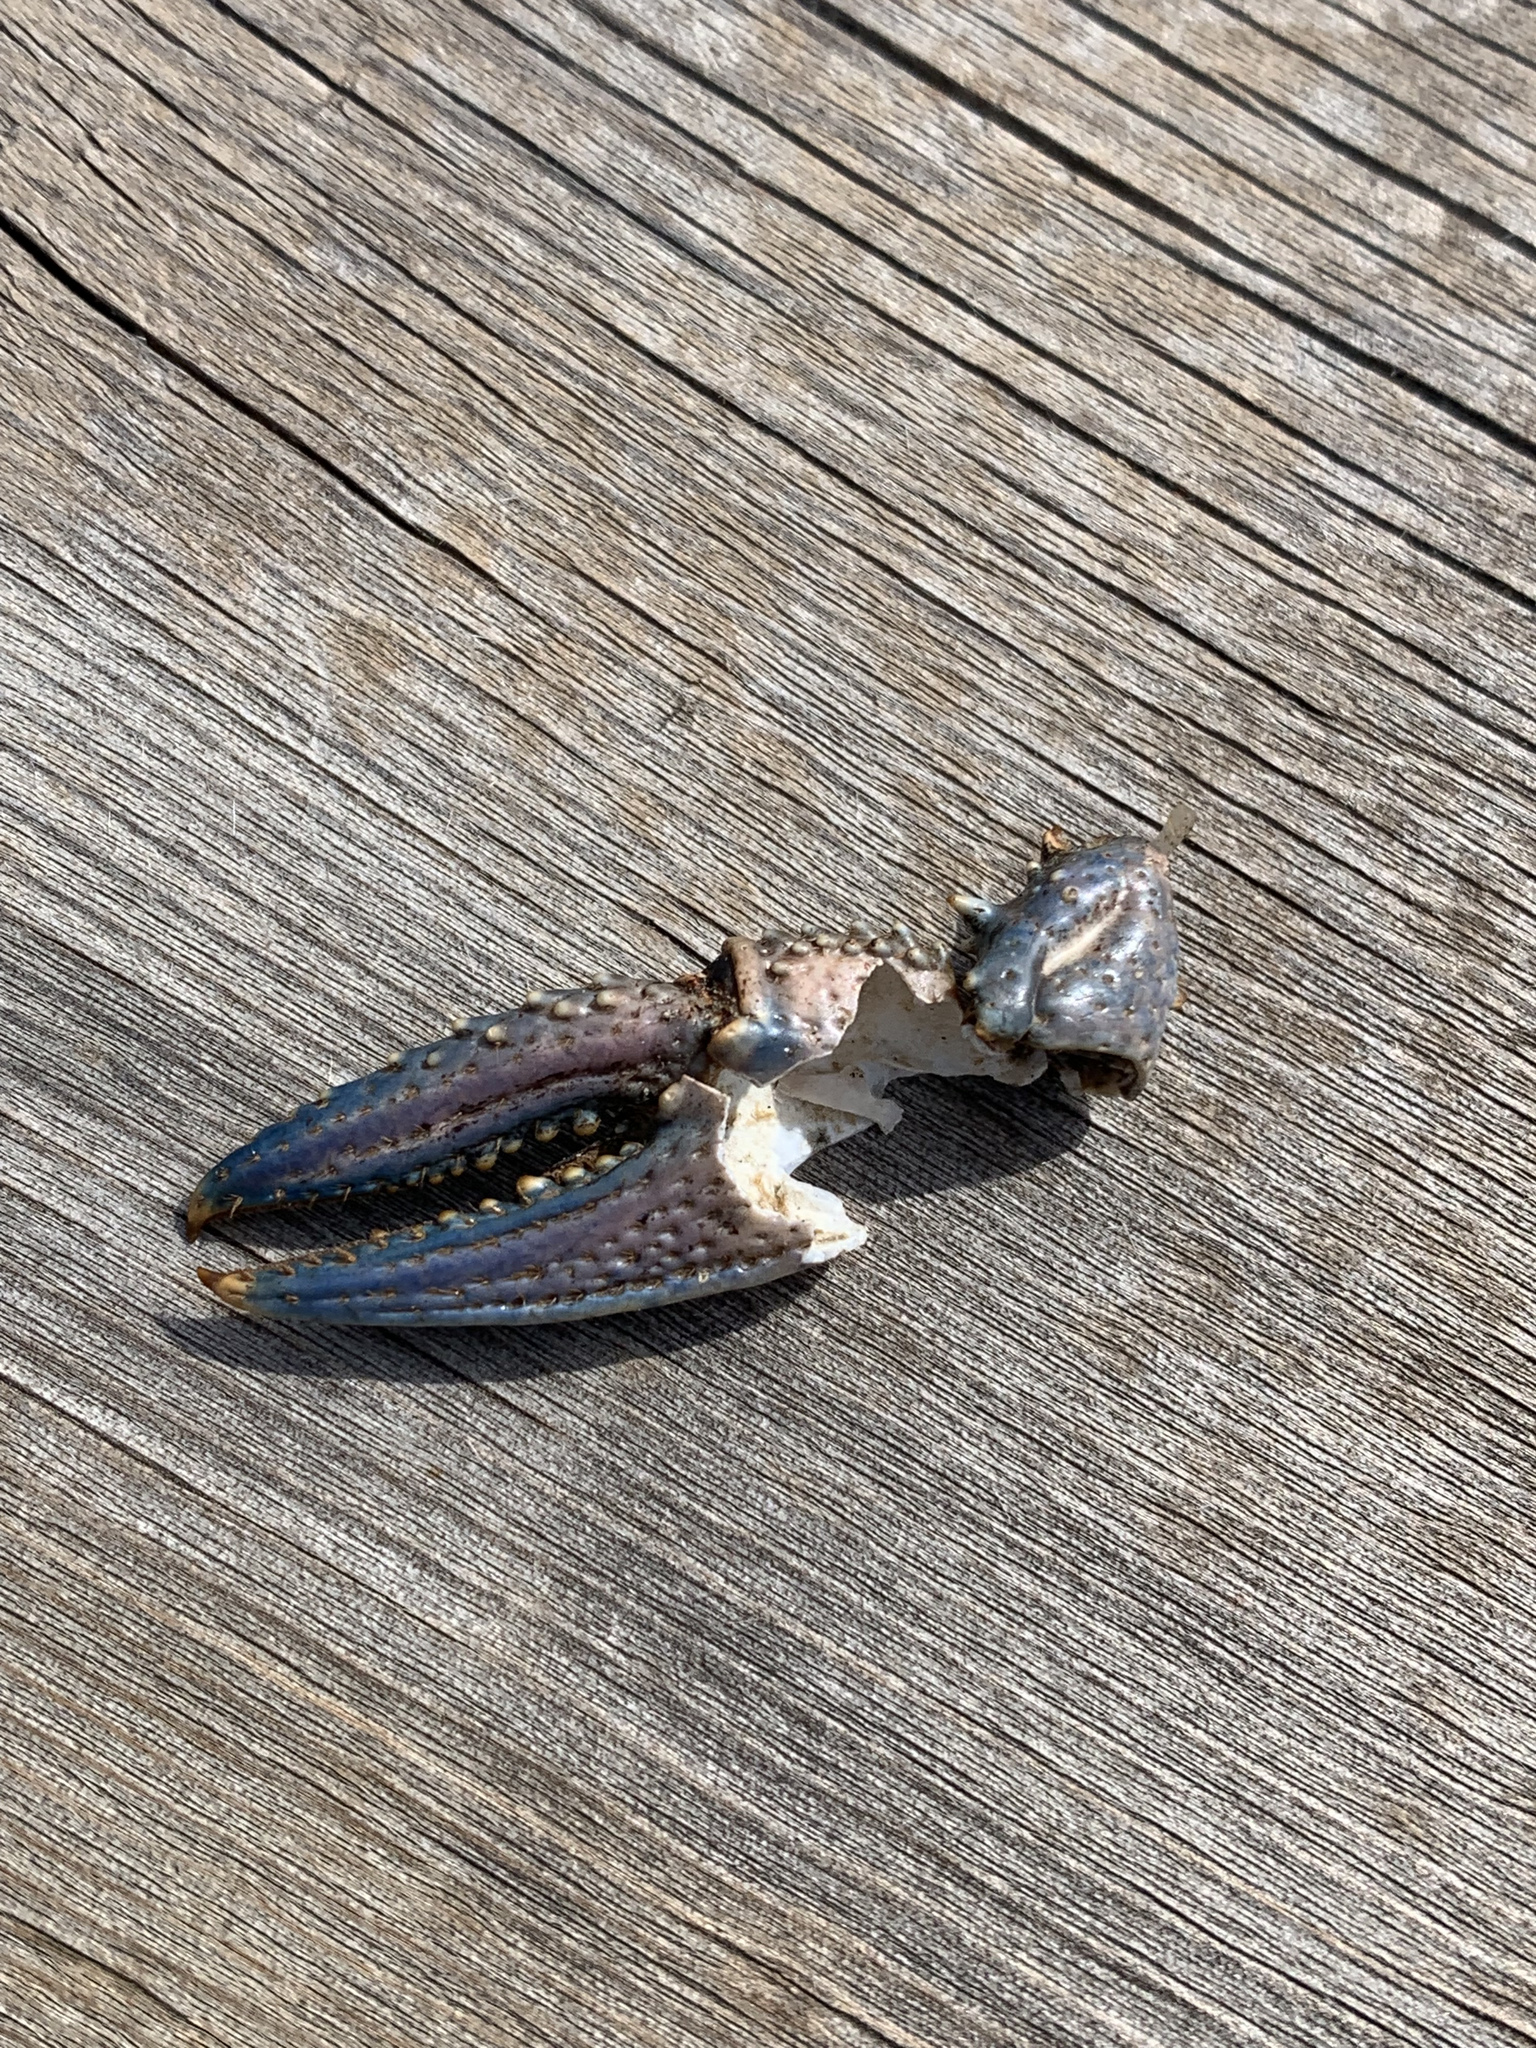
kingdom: Animalia
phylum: Arthropoda
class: Malacostraca
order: Decapoda
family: Cambaridae
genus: Faxonius
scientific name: Faxonius virilis
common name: Virile crayfish
